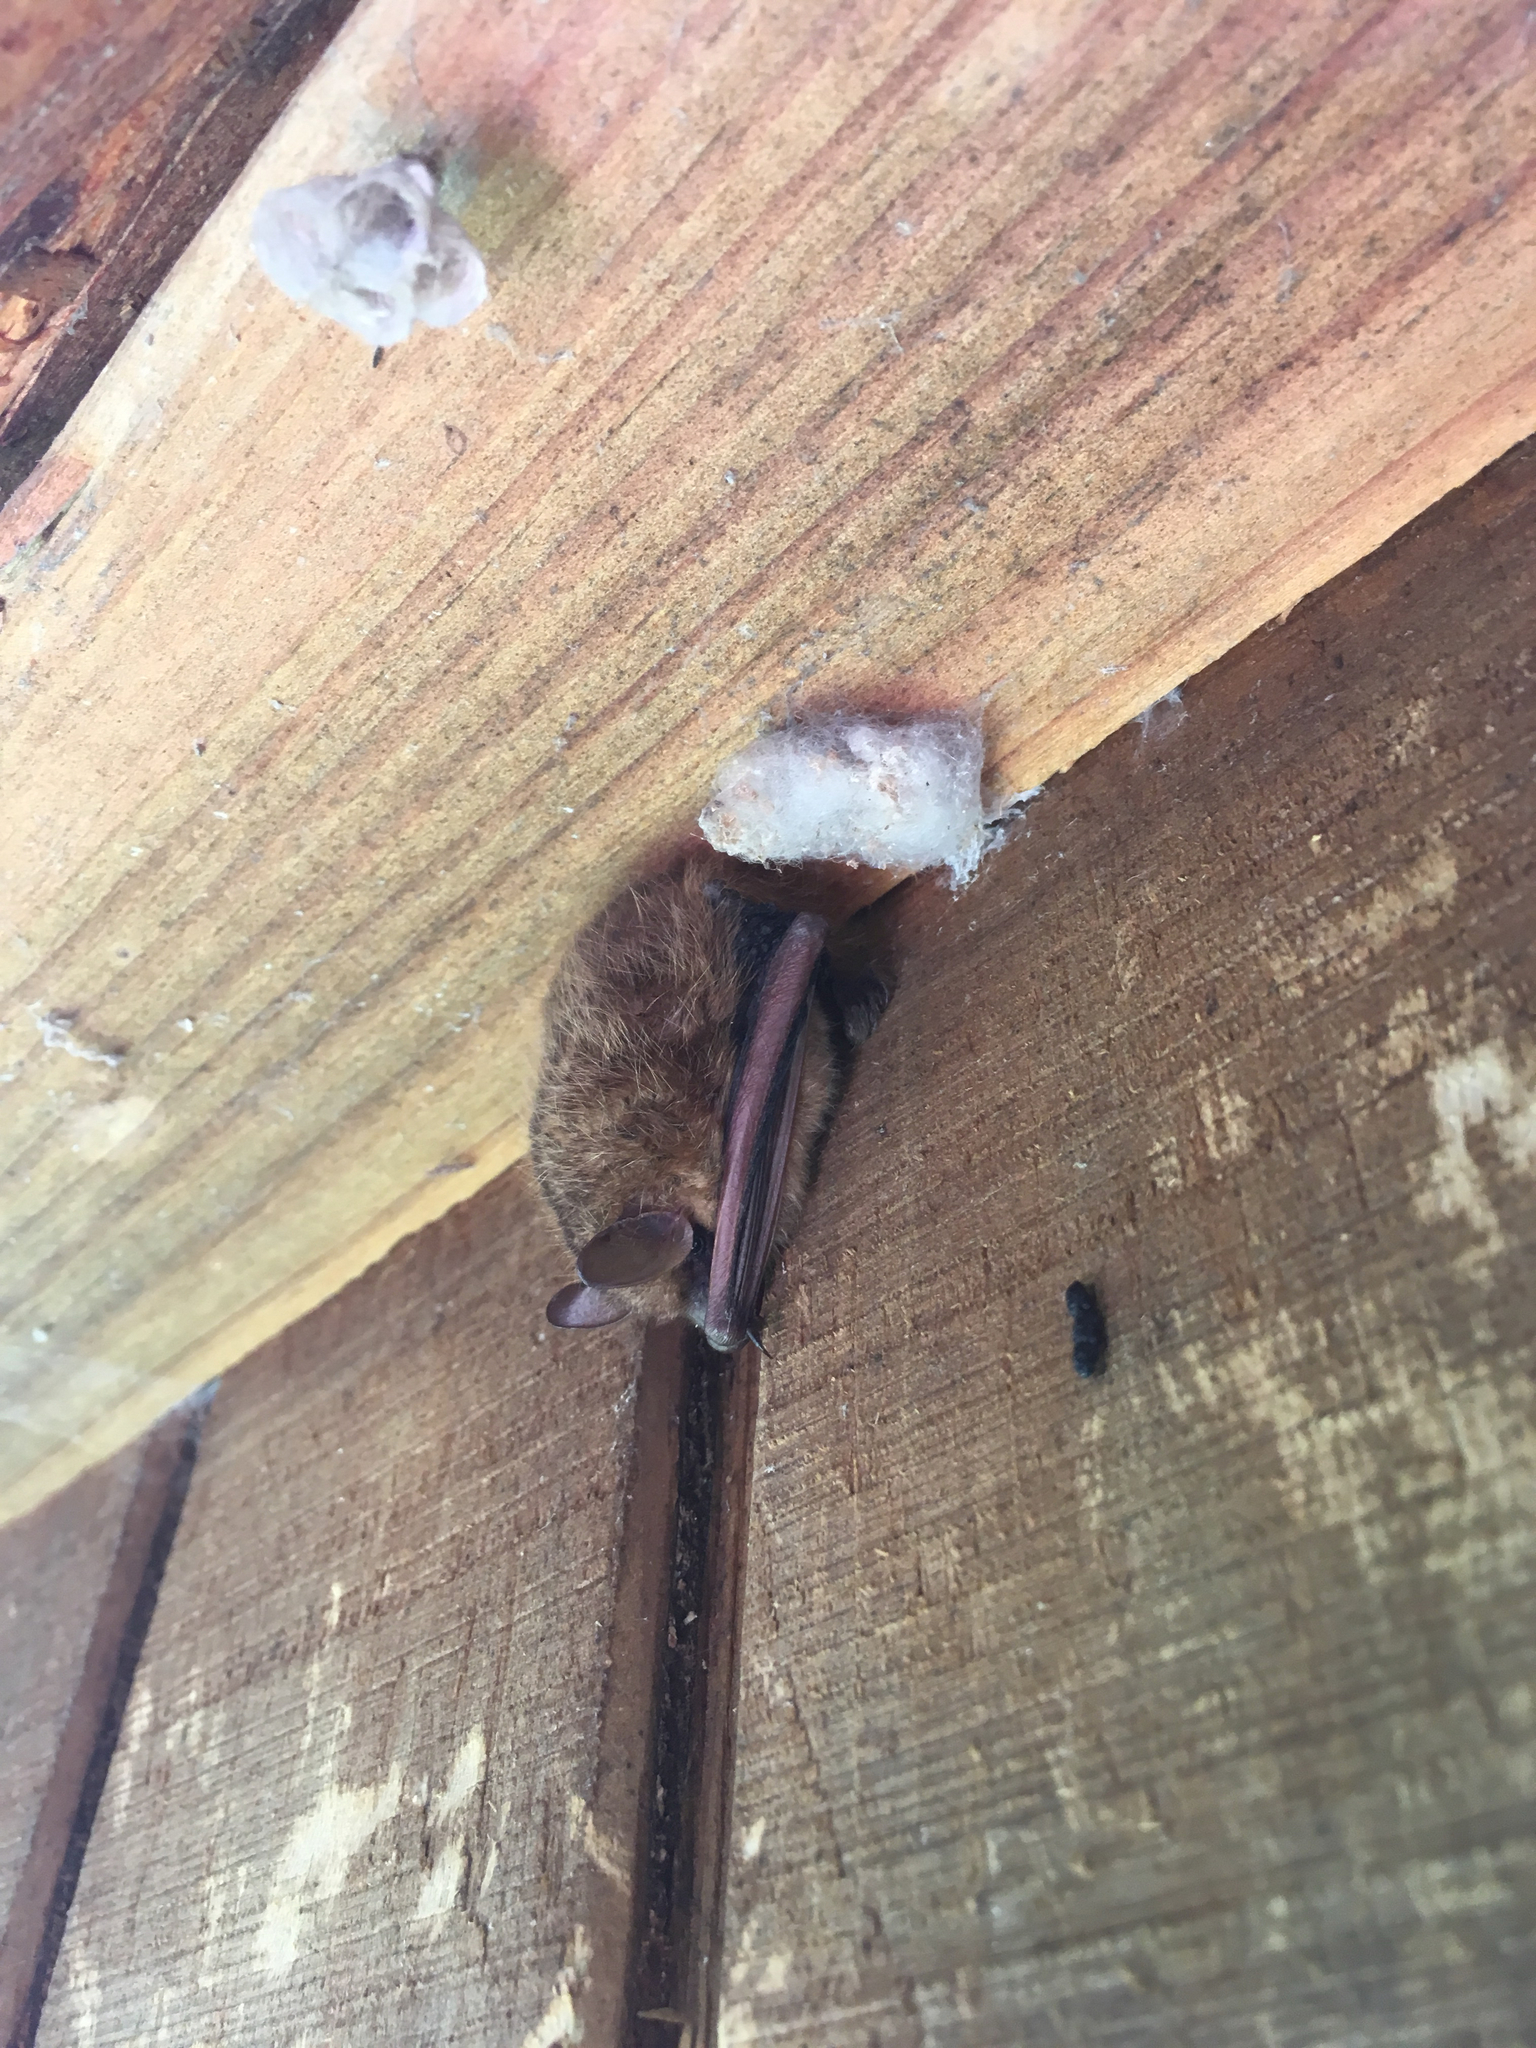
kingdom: Animalia
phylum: Chordata
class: Mammalia
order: Chiroptera
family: Vespertilionidae
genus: Perimyotis
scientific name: Perimyotis subflavus
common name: Eastern pipistrelle
